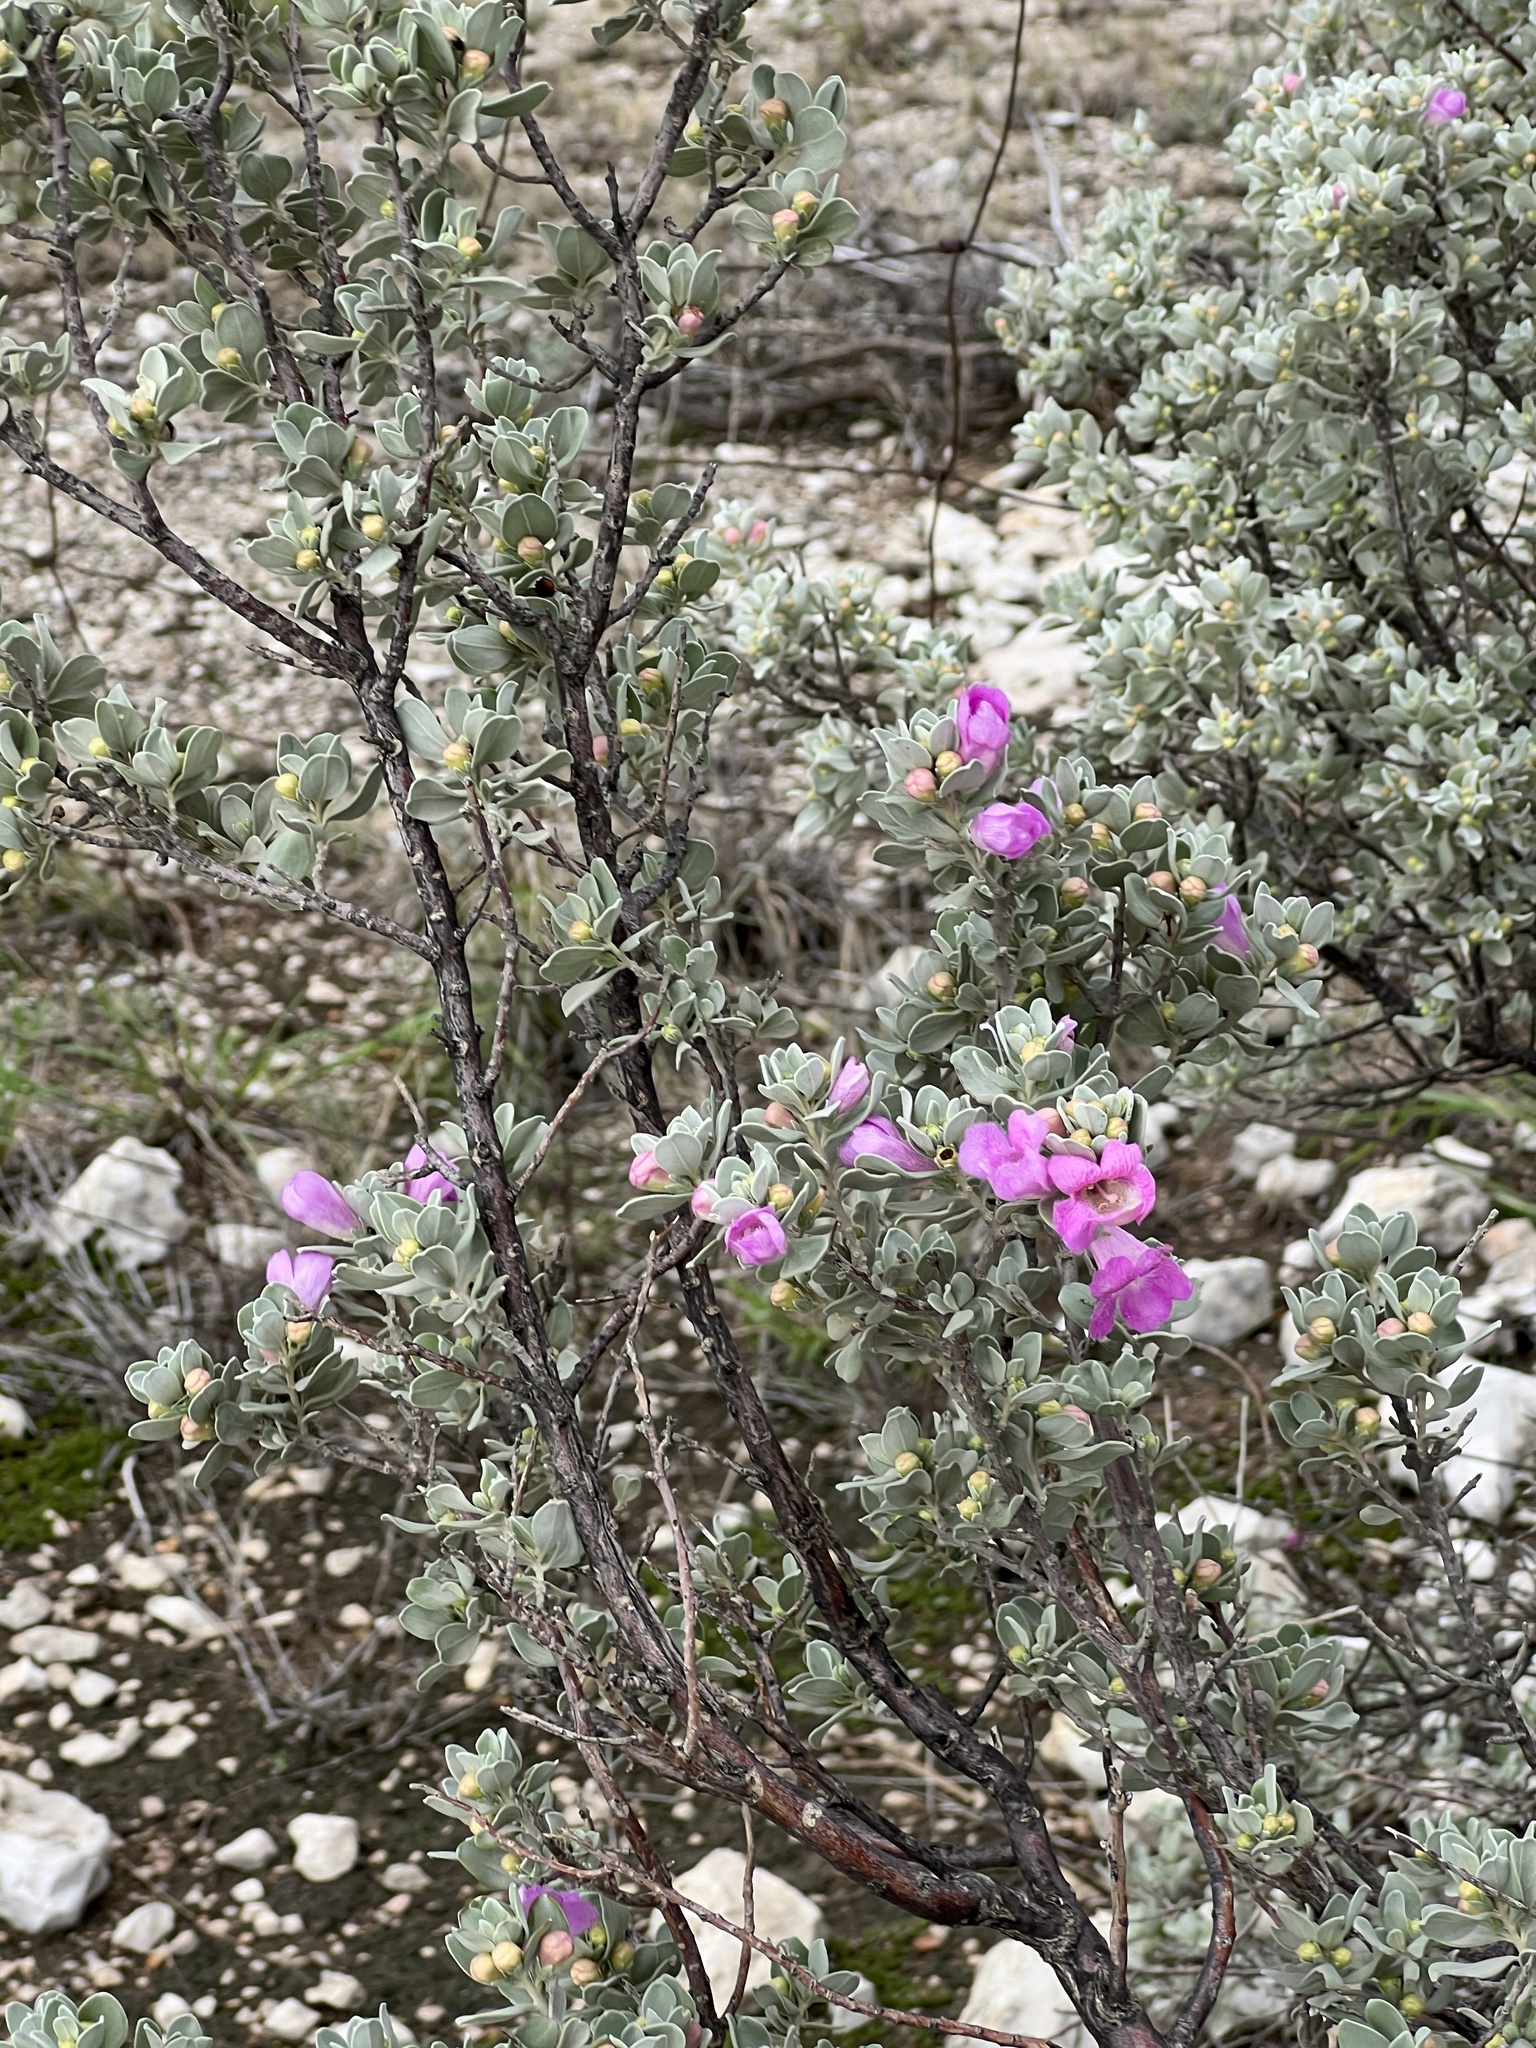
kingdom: Plantae
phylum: Tracheophyta
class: Magnoliopsida
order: Lamiales
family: Scrophulariaceae
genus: Leucophyllum
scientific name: Leucophyllum frutescens
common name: Texas silverleaf
